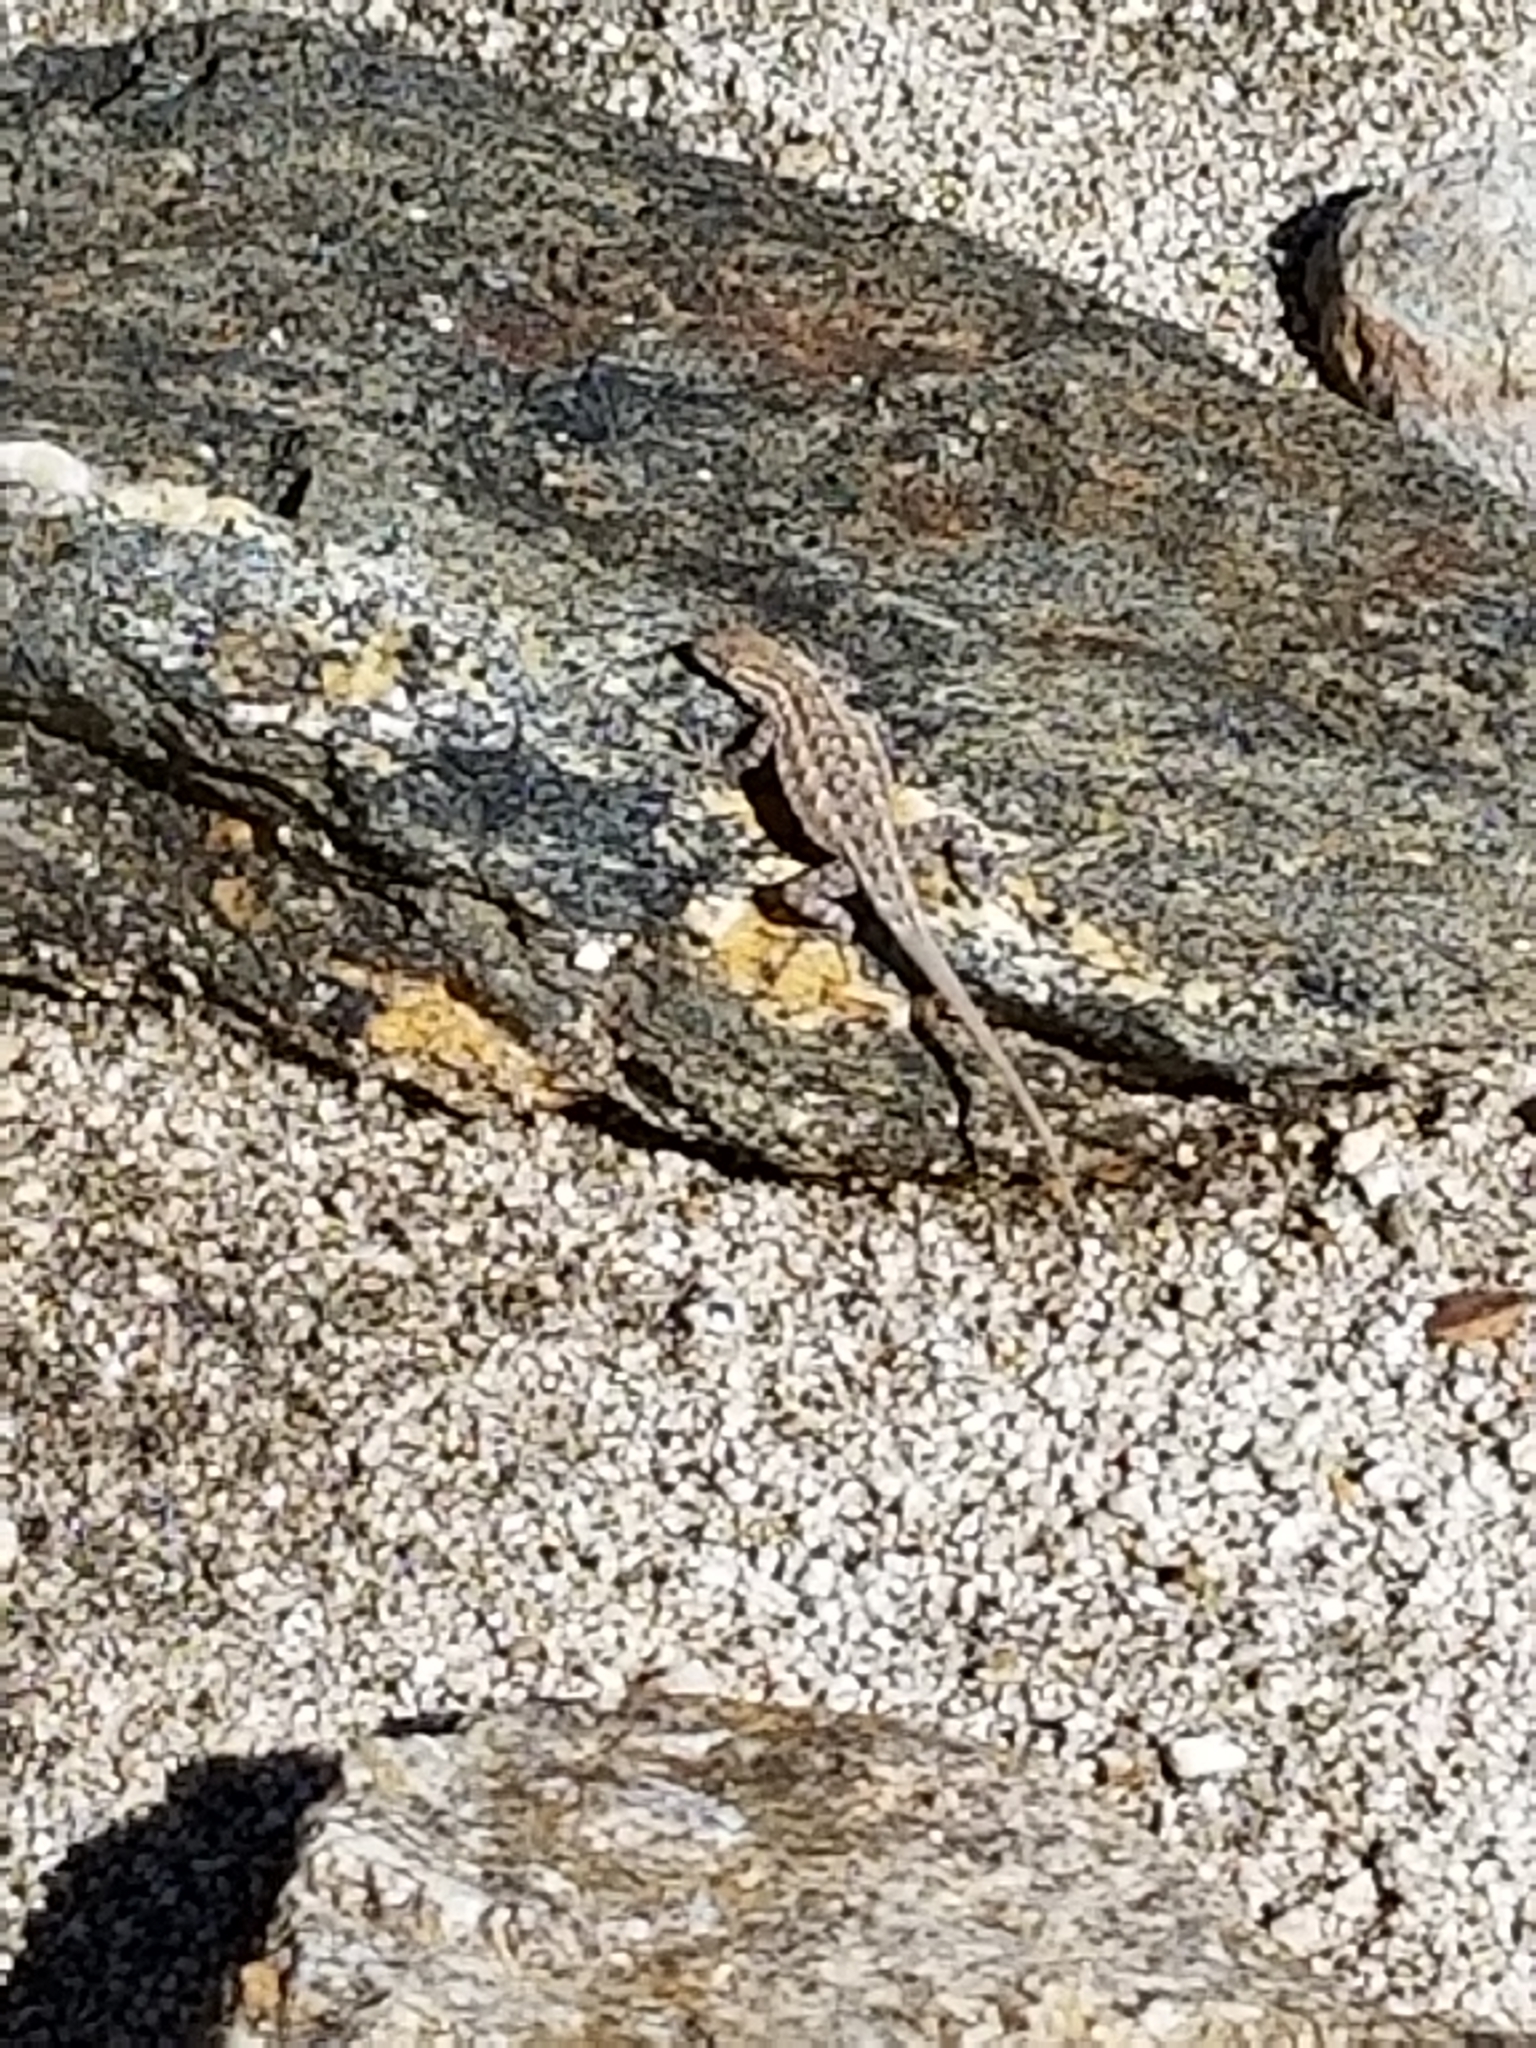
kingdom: Animalia
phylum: Chordata
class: Squamata
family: Phrynosomatidae
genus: Uta
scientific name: Uta stansburiana
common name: Side-blotched lizard
